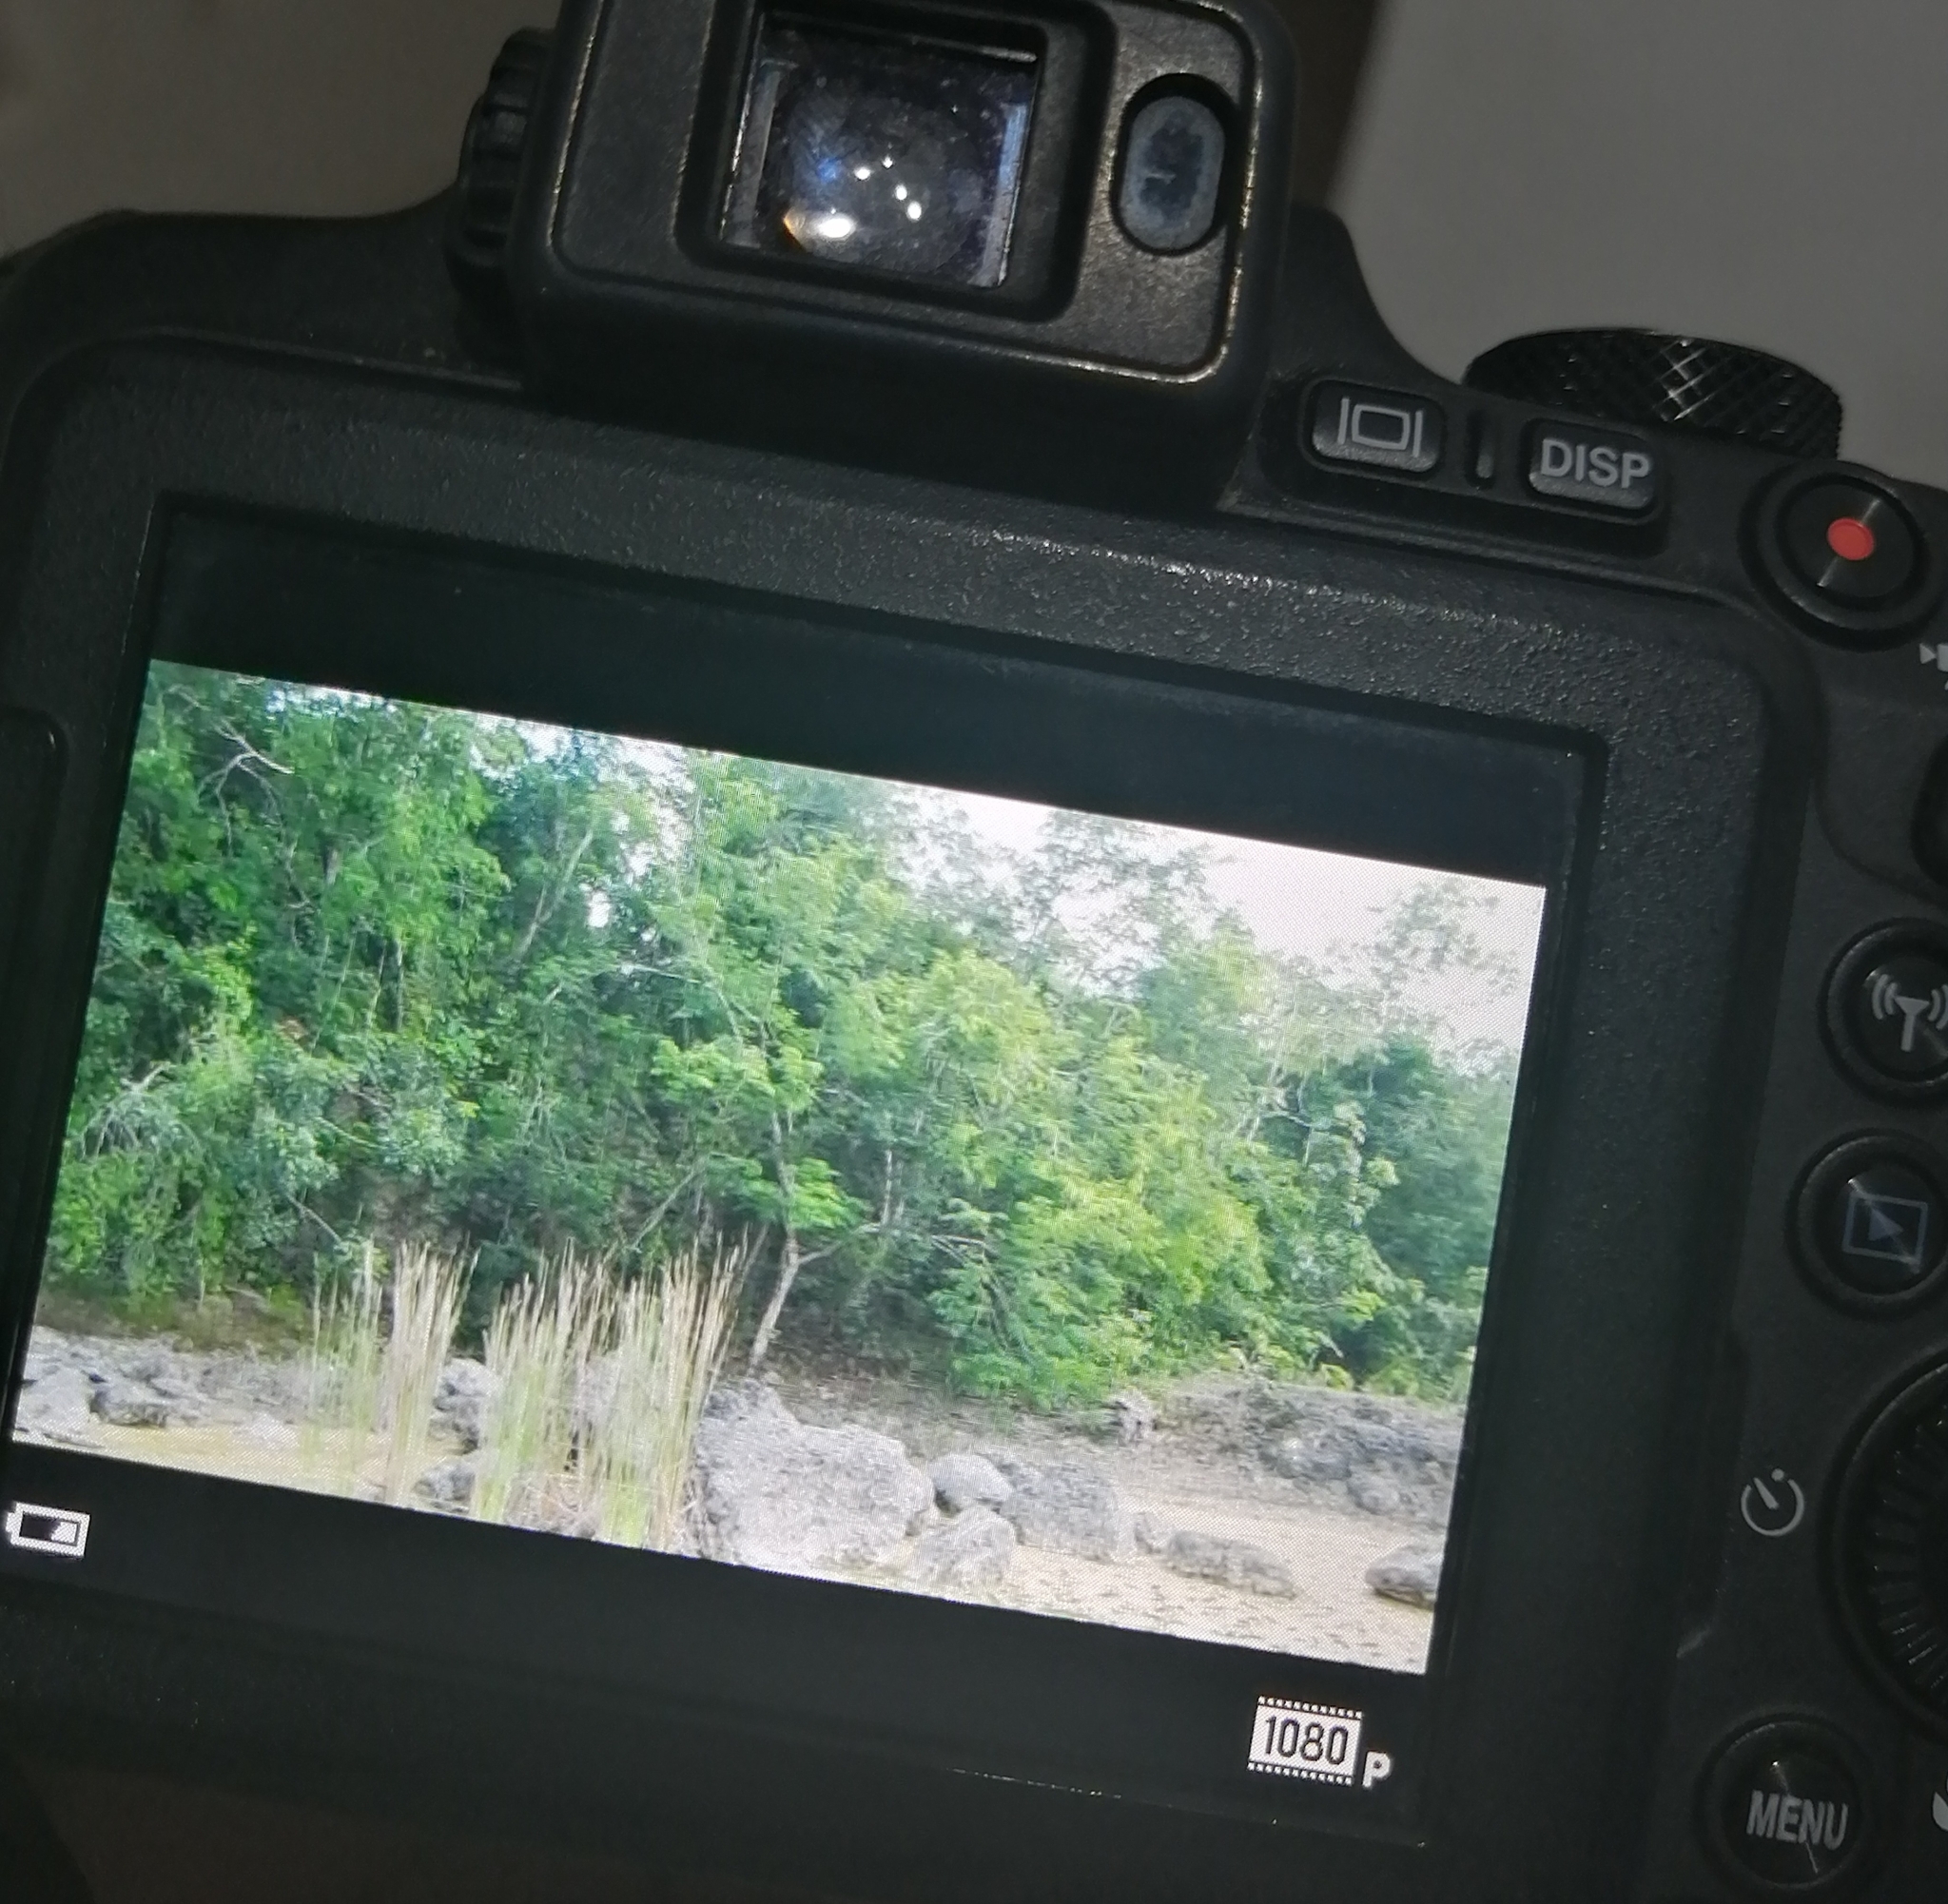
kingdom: Animalia
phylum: Chordata
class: Aves
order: Accipitriformes
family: Accipitridae
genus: Spizaetus
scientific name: Spizaetus tyrannus
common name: Black hawk-eagle
